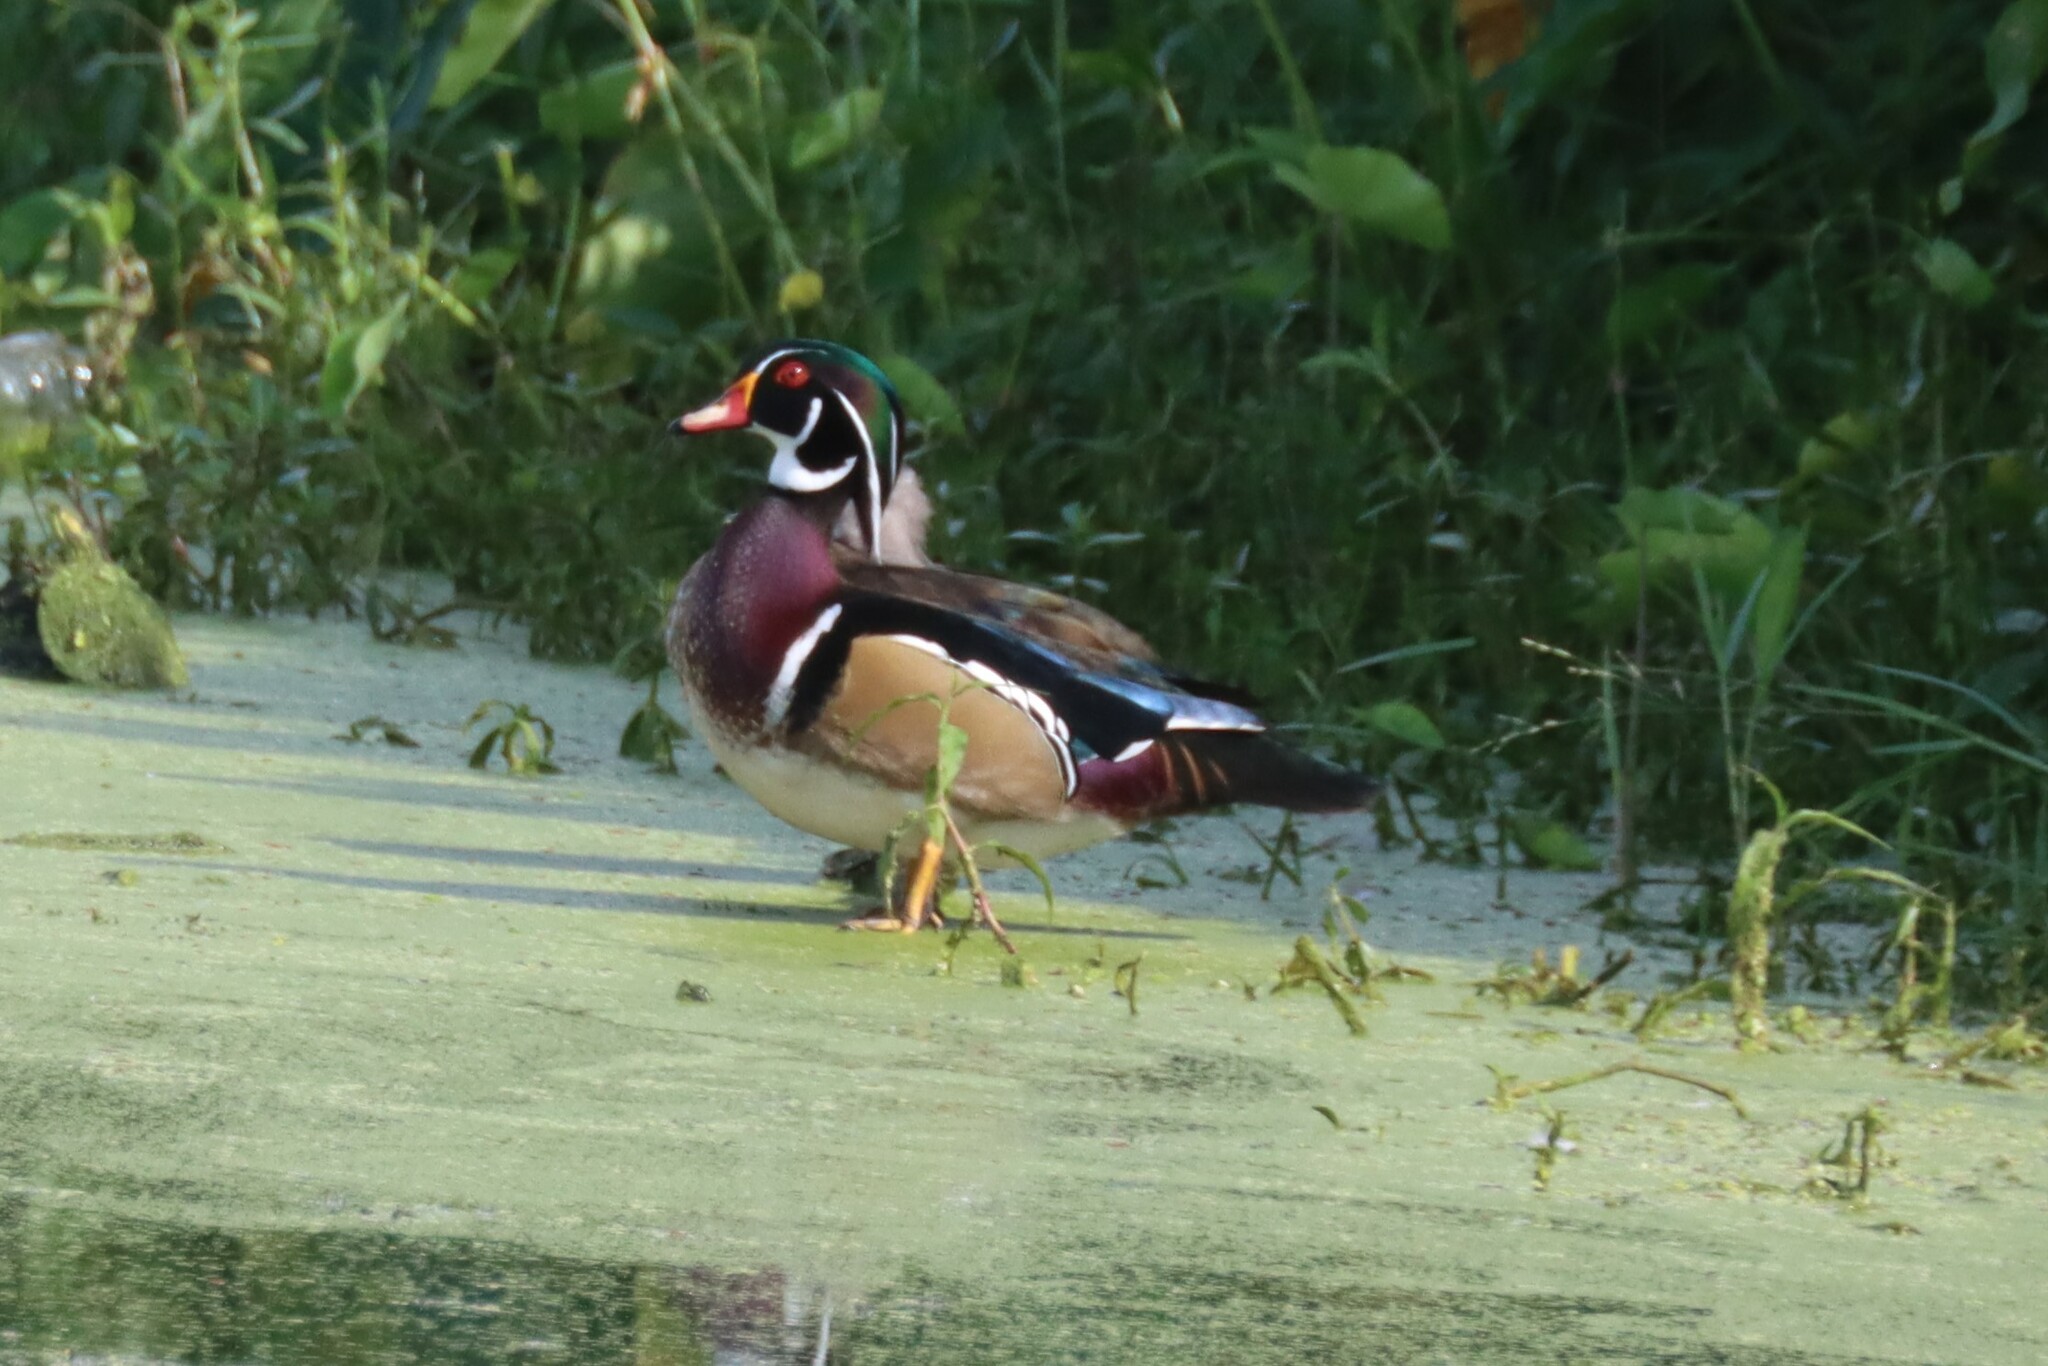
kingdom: Animalia
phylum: Chordata
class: Aves
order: Anseriformes
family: Anatidae
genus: Aix
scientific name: Aix sponsa
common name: Wood duck
